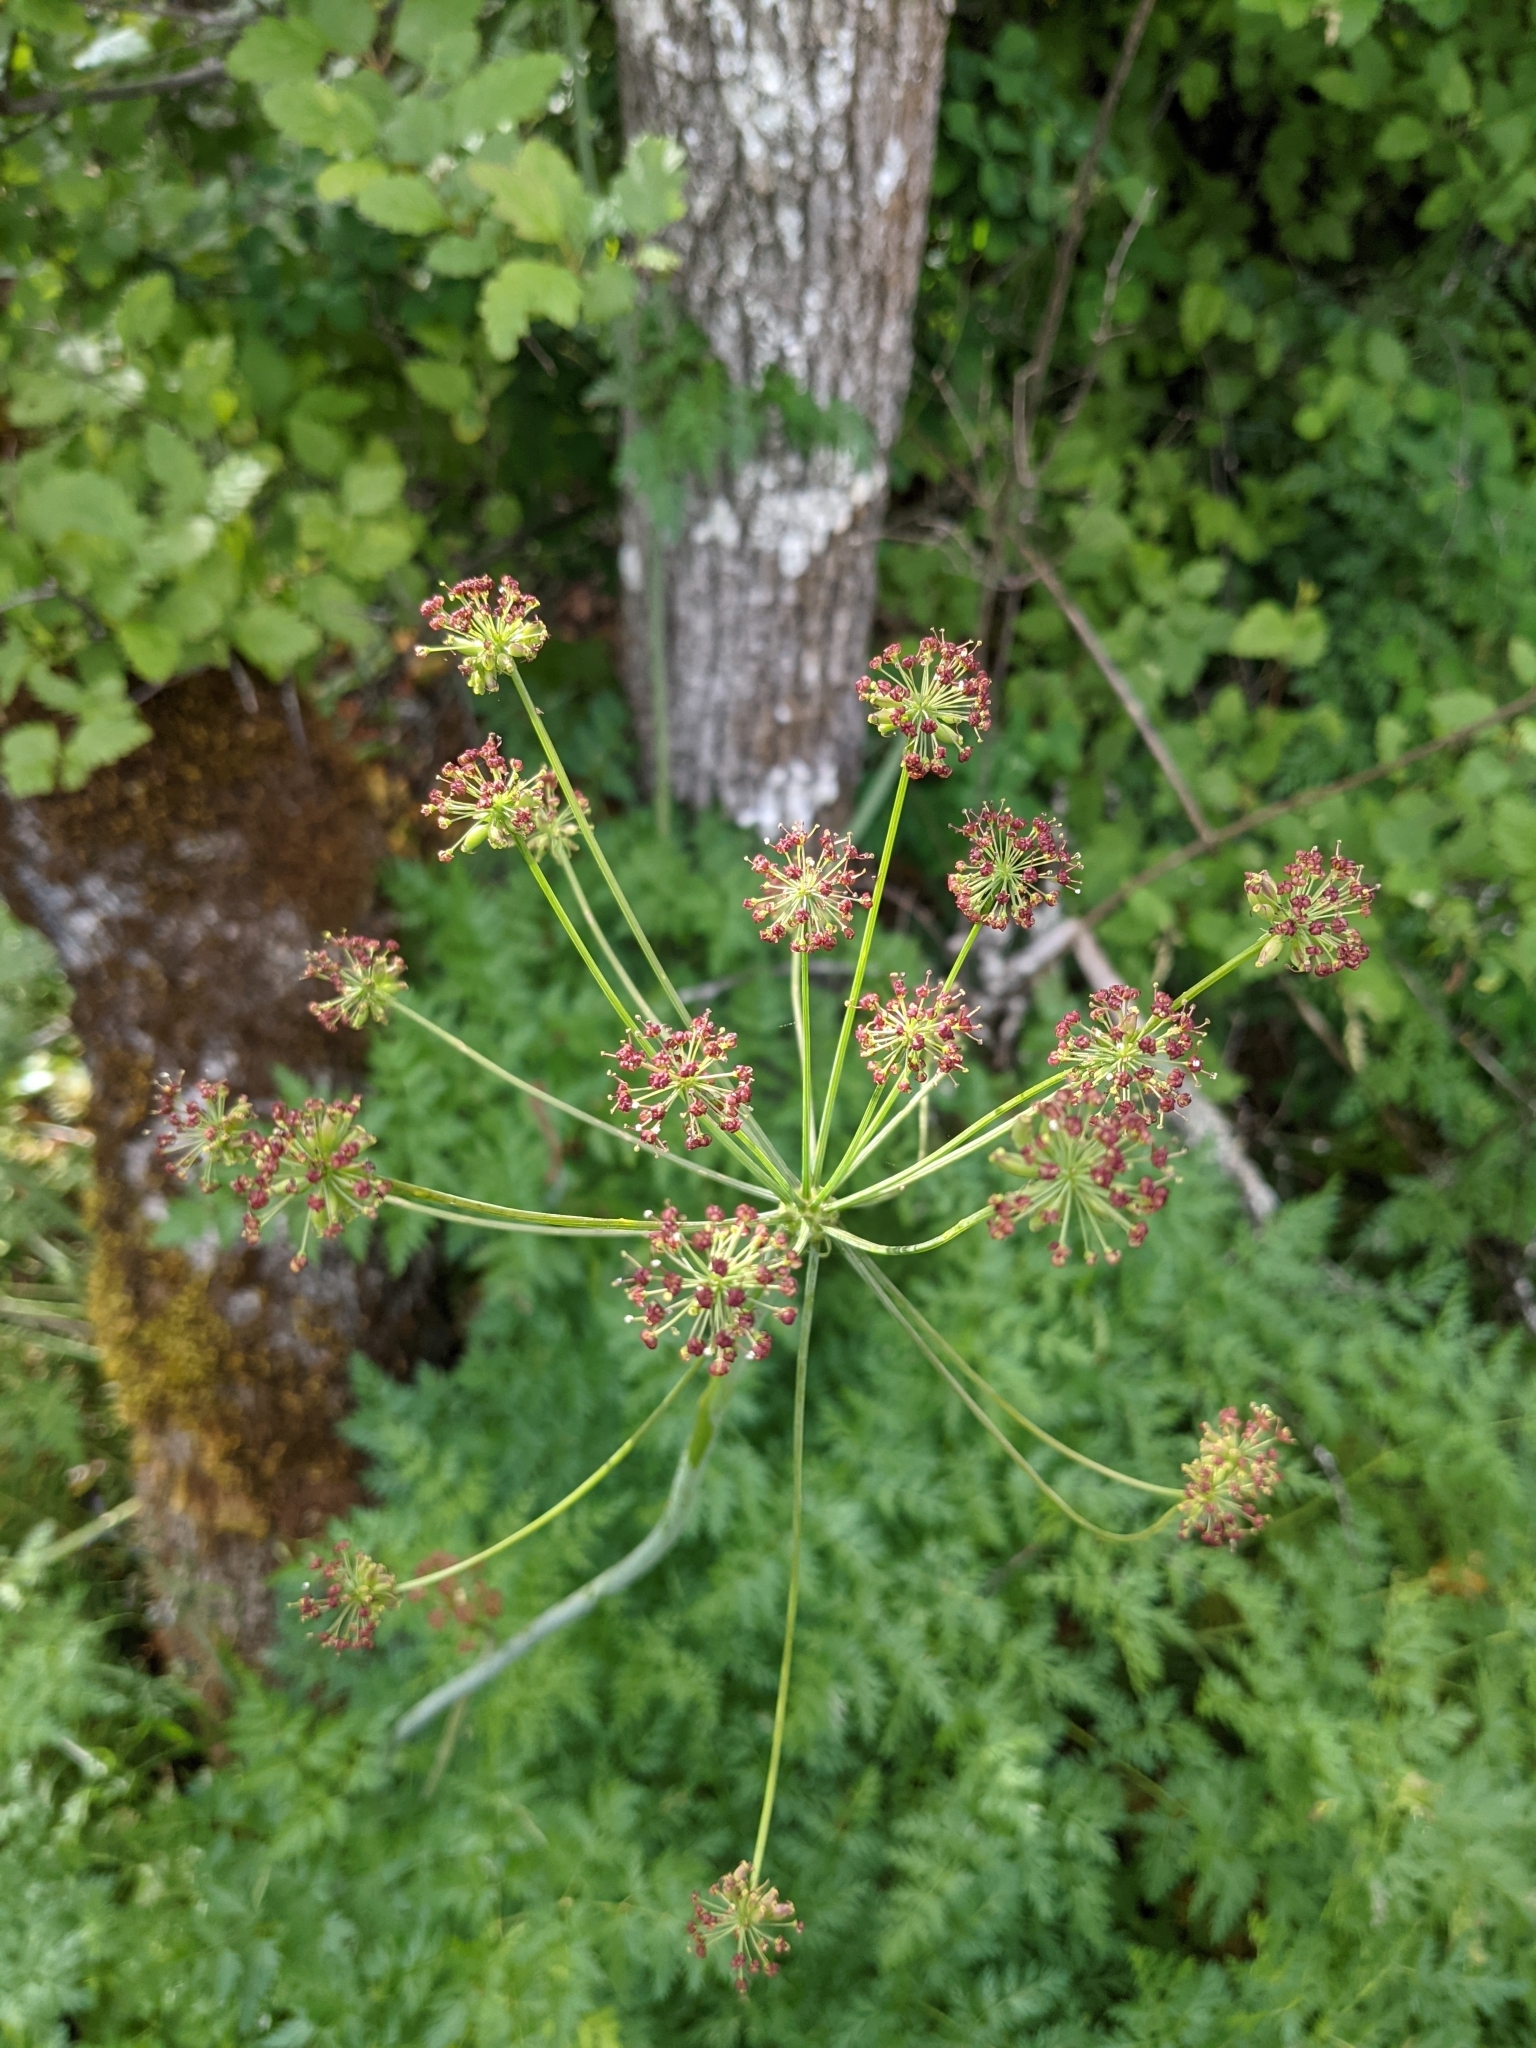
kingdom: Plantae
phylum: Tracheophyta
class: Magnoliopsida
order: Apiales
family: Apiaceae
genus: Lomatium
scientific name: Lomatium dissectum
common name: Lomatium
